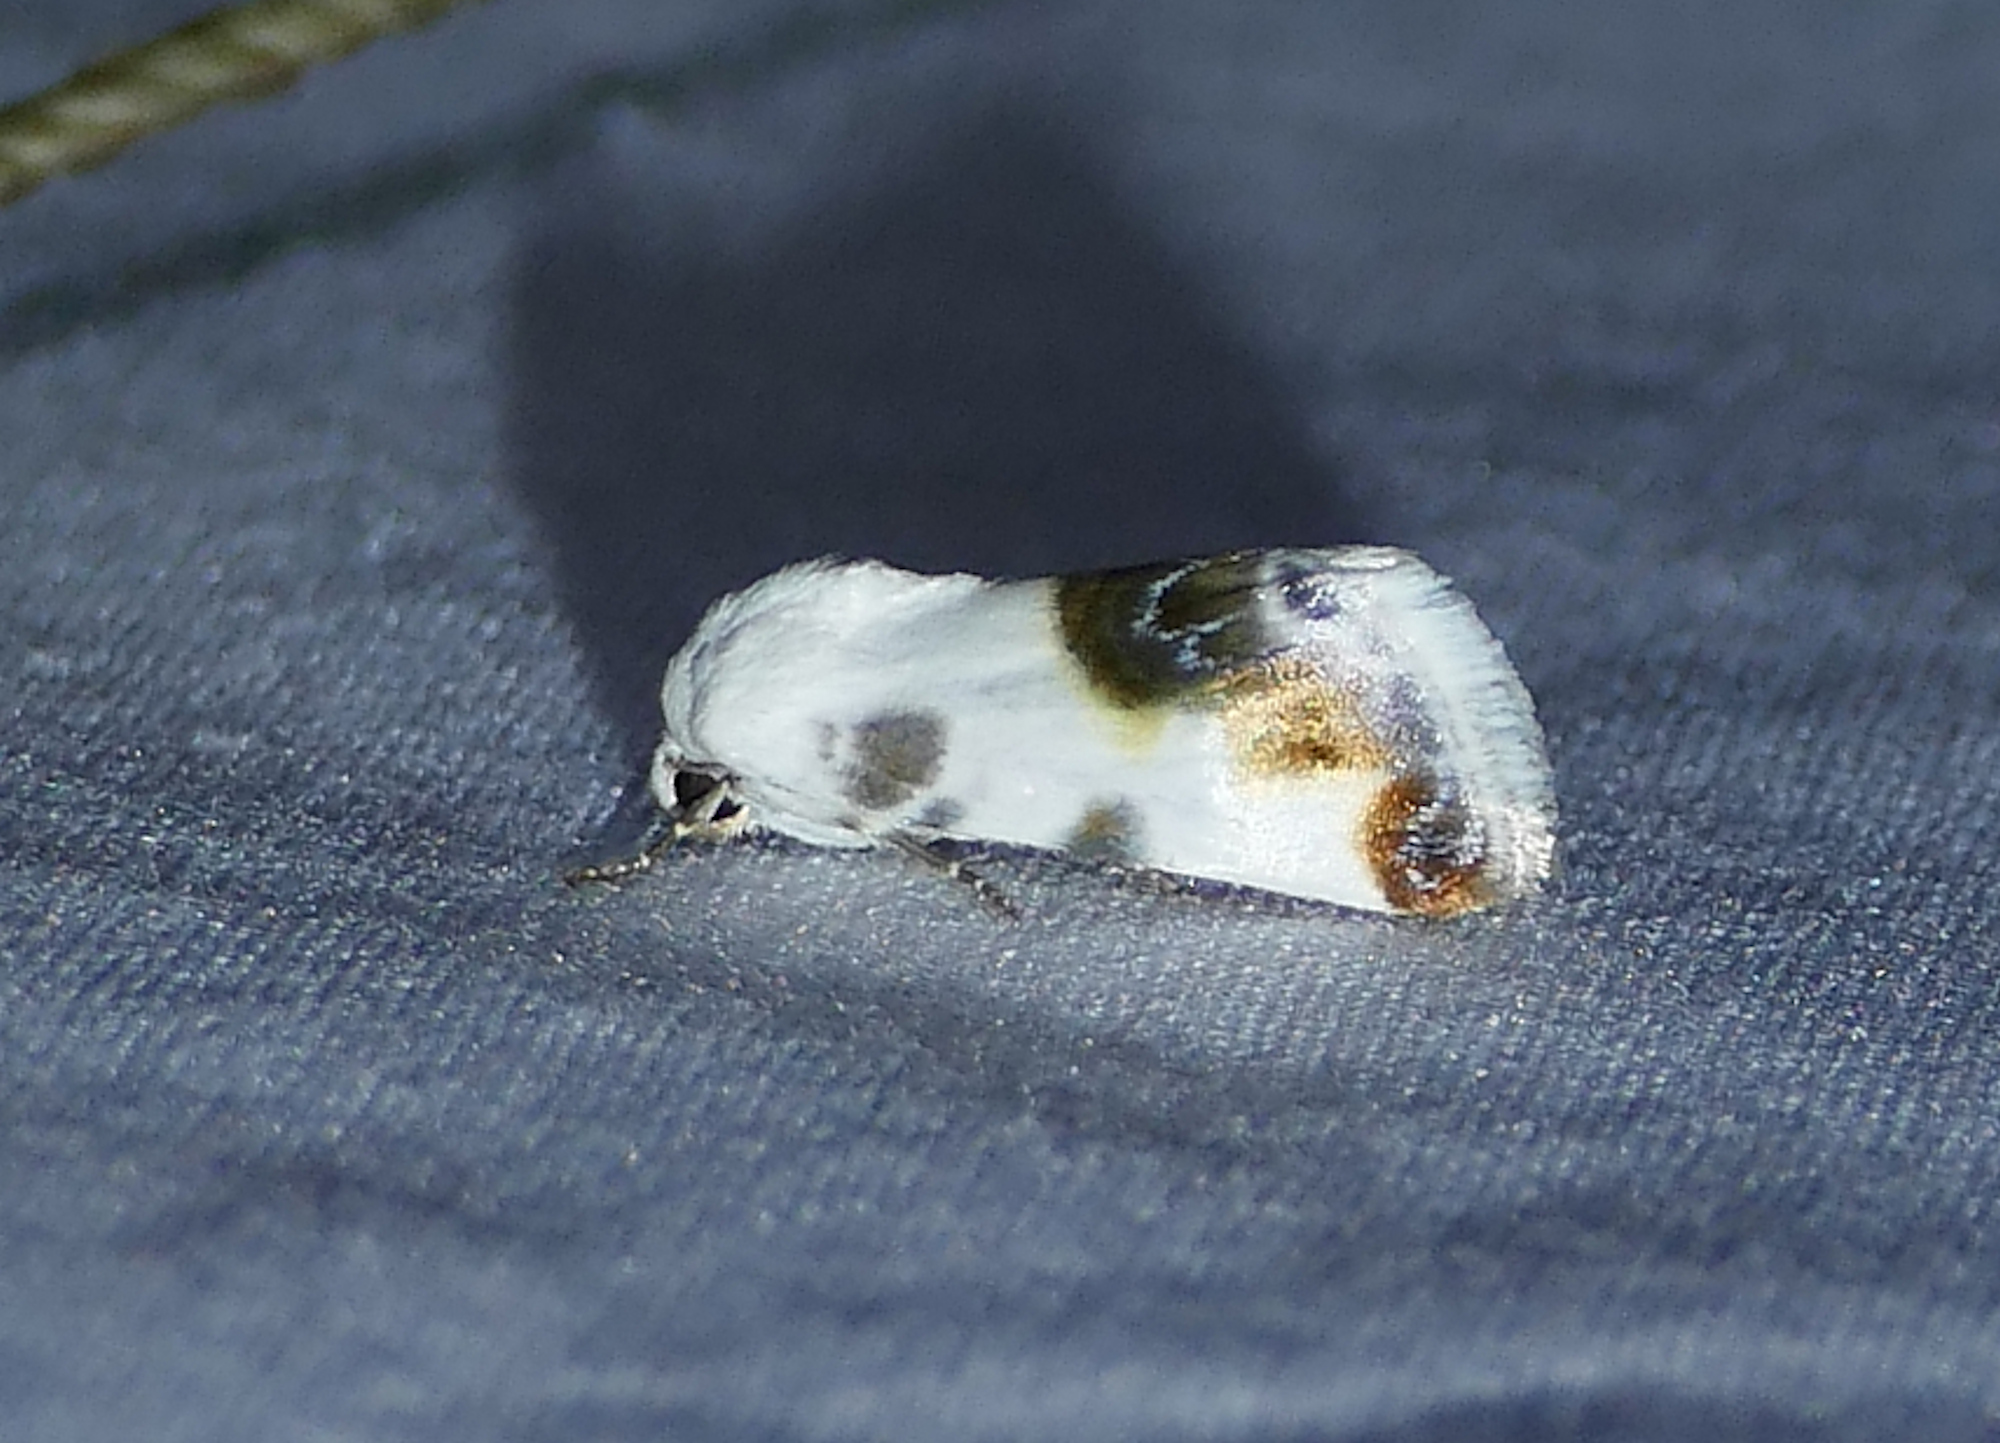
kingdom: Animalia
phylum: Arthropoda
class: Insecta
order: Lepidoptera
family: Noctuidae
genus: Acontia
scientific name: Acontia cretata
